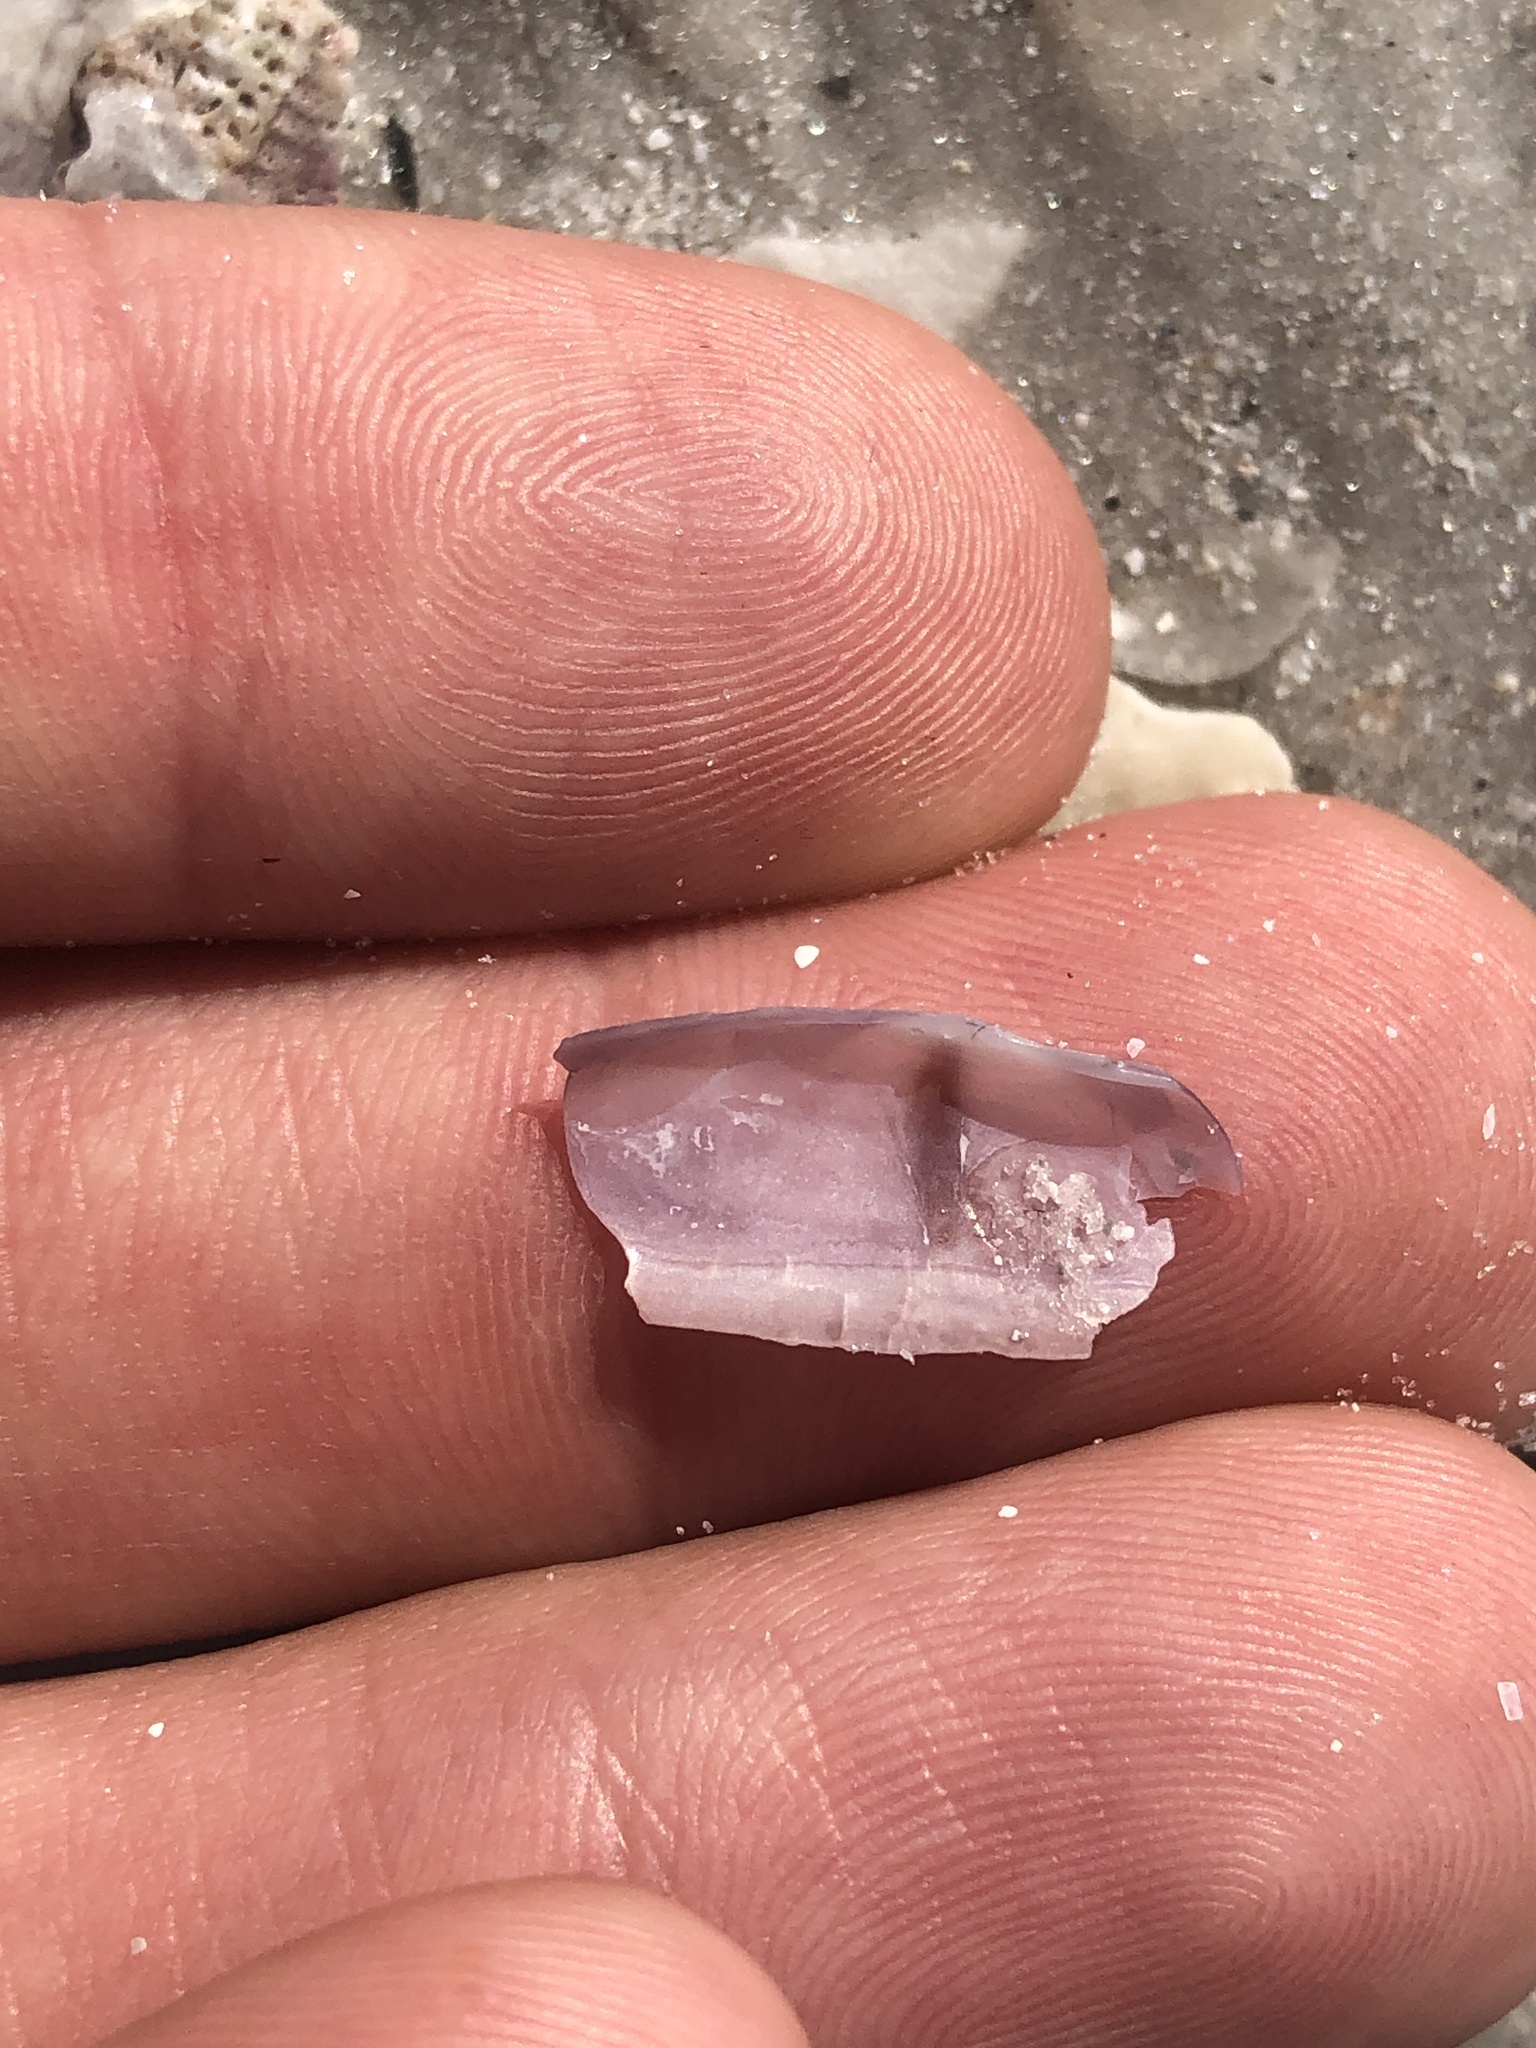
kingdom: Animalia
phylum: Mollusca
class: Bivalvia
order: Cardiida
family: Solecurtidae
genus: Tagelus
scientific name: Tagelus divisus
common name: Purplish tagelus
